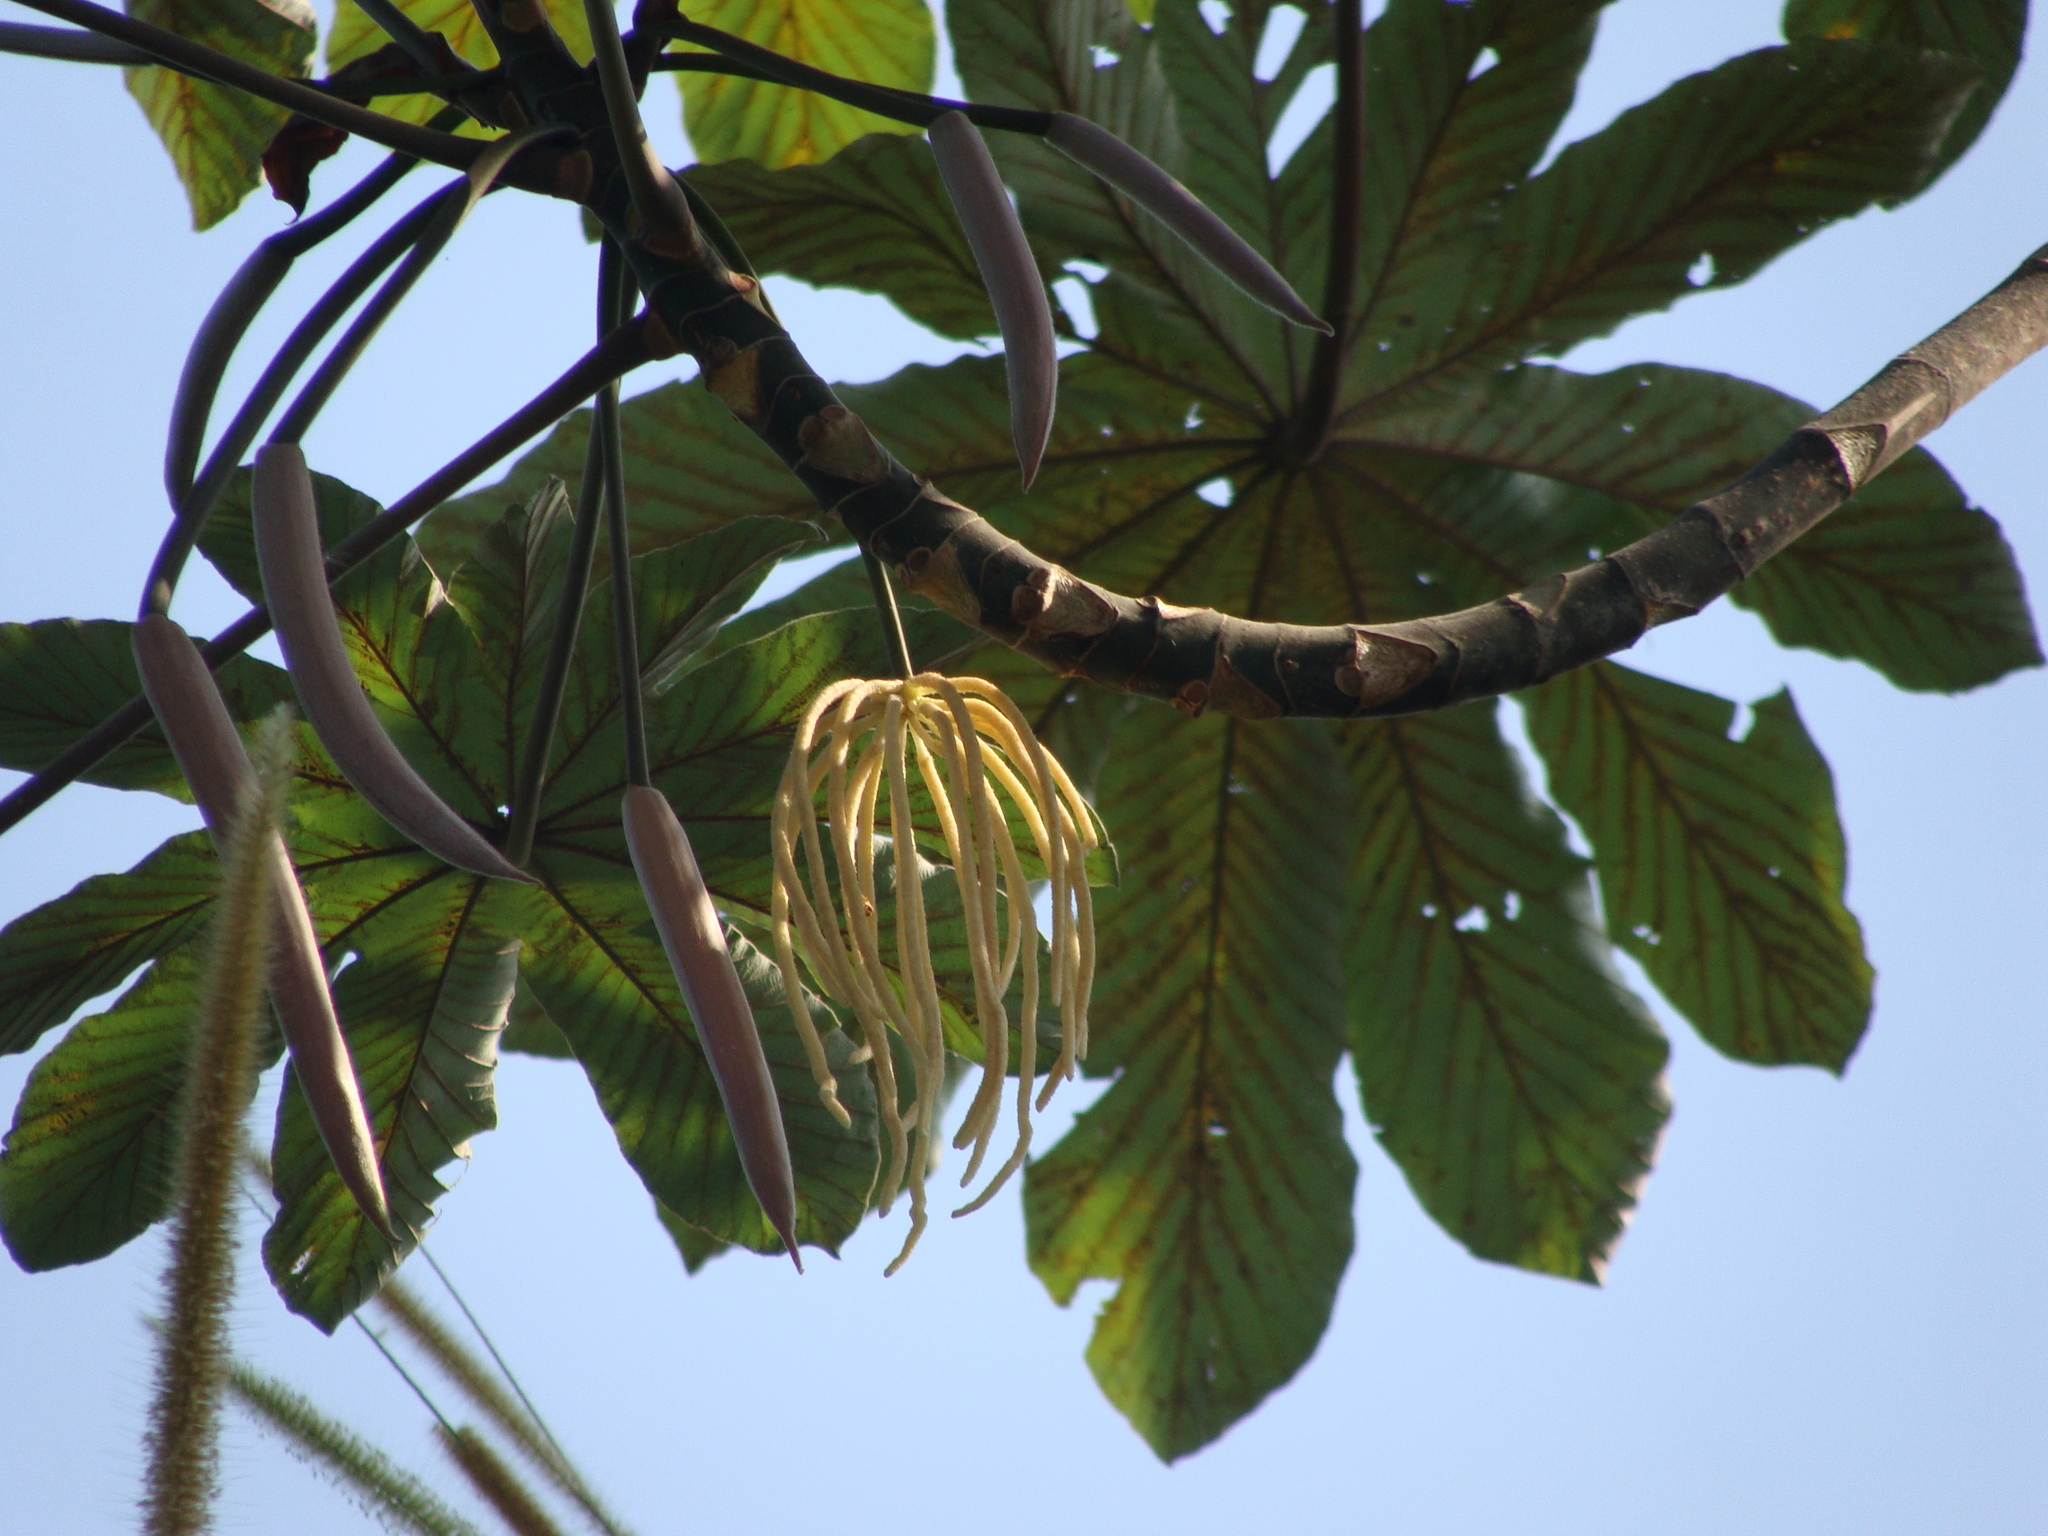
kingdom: Plantae
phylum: Tracheophyta
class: Magnoliopsida
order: Rosales
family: Urticaceae
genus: Cecropia
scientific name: Cecropia obtusifolia
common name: Trumpet tree
